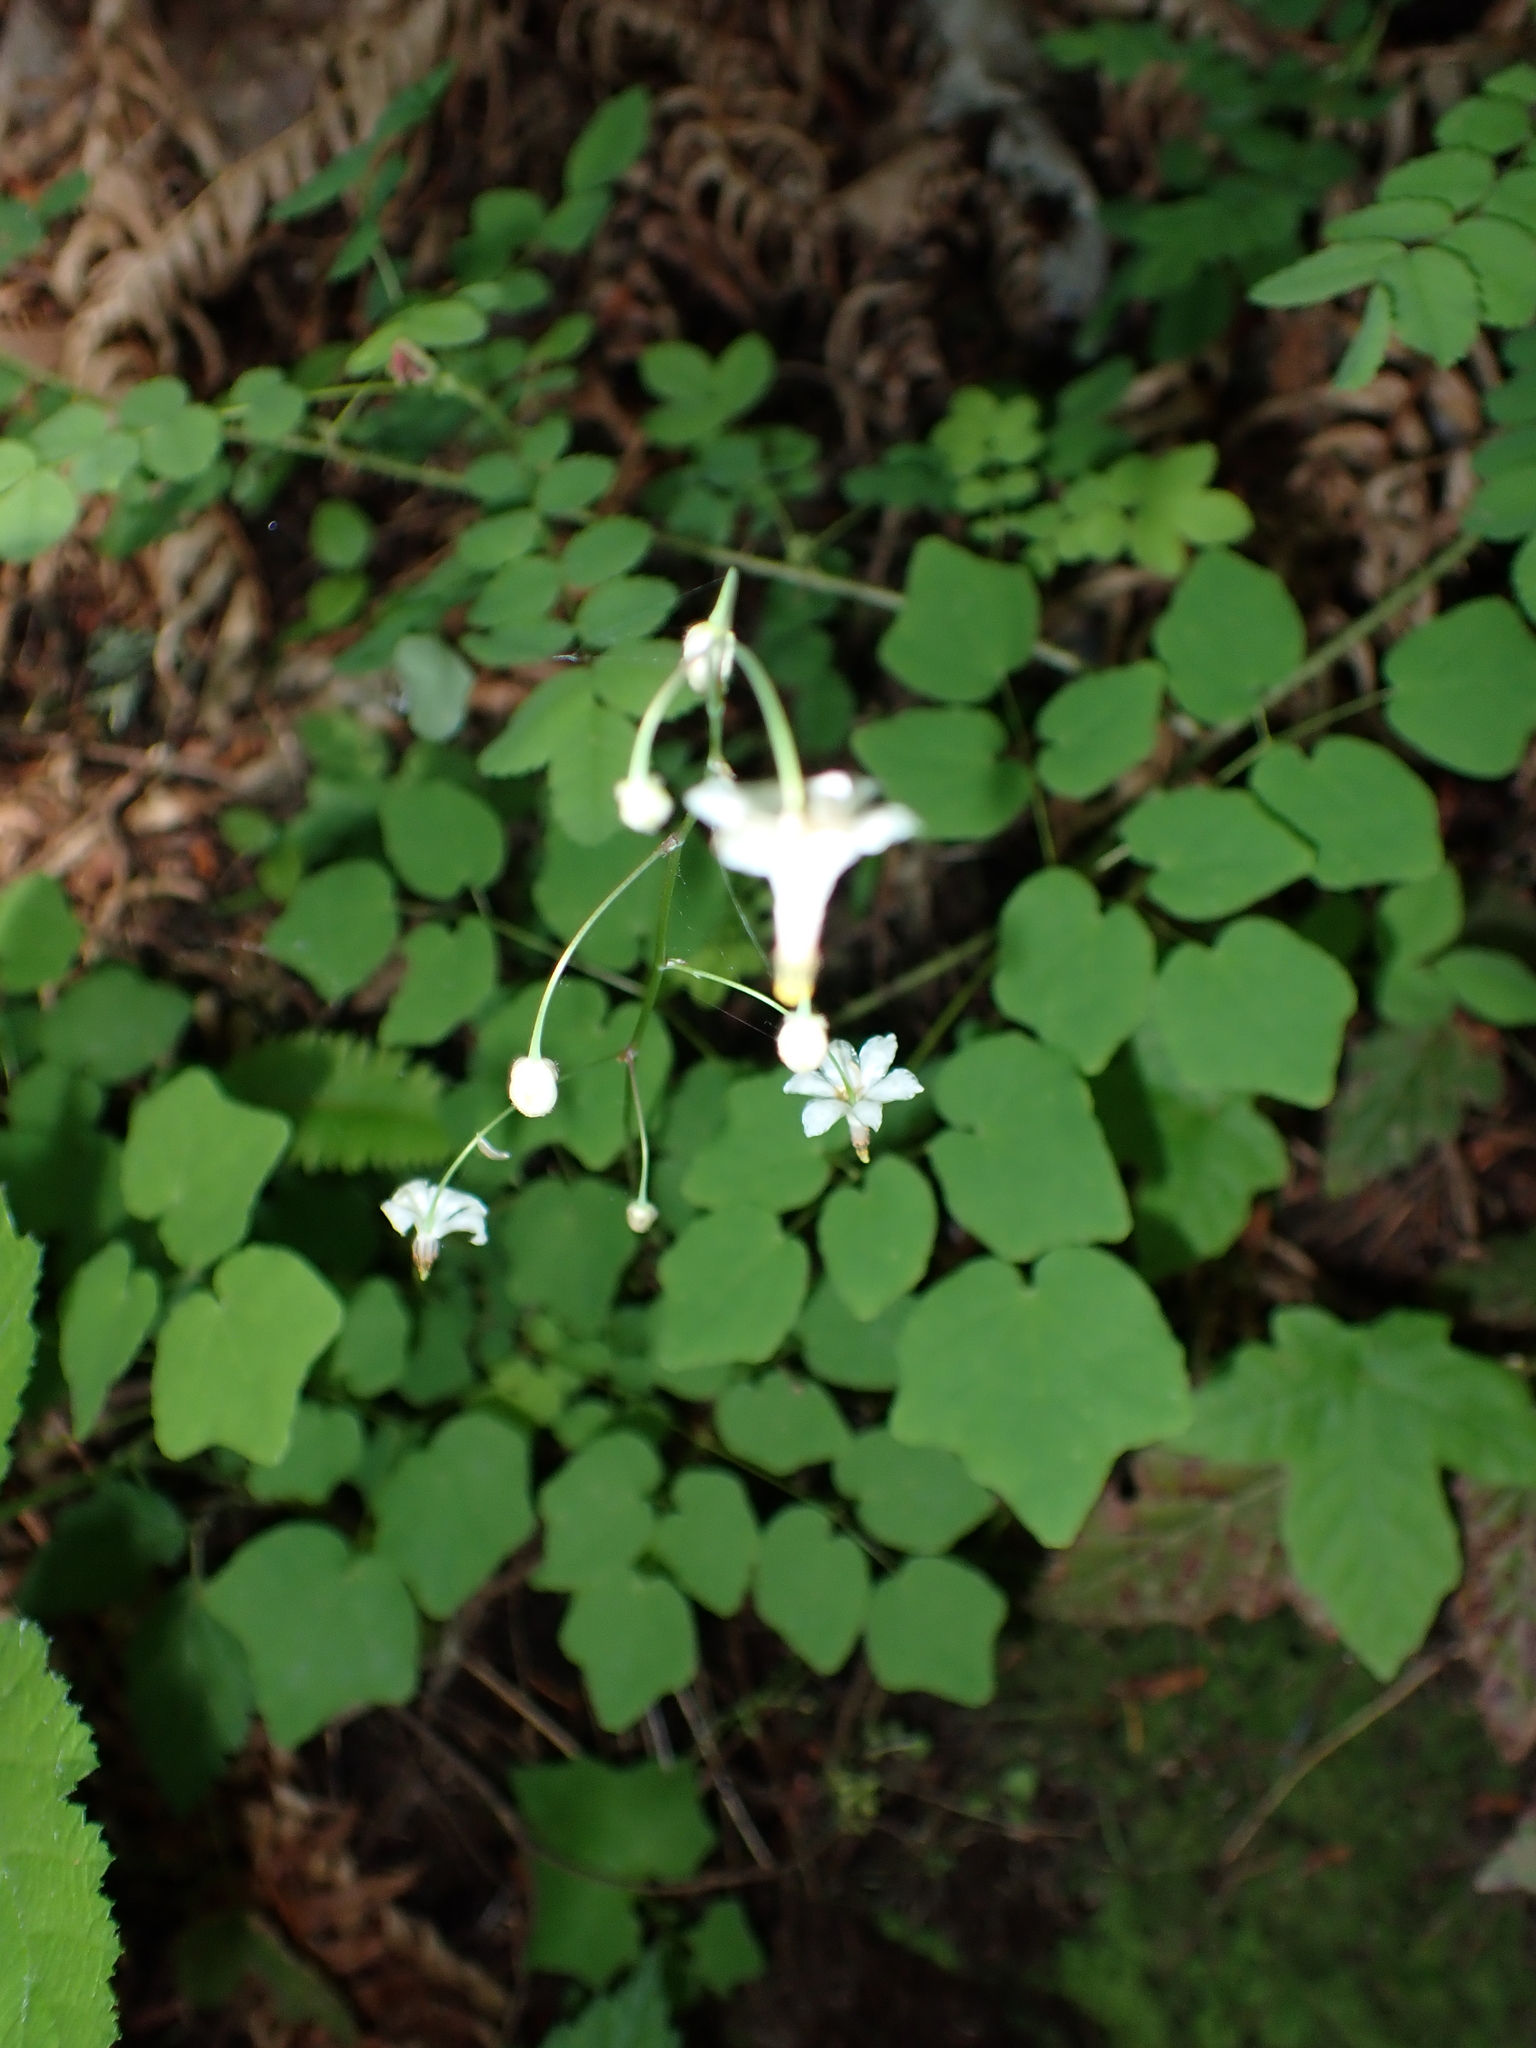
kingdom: Plantae
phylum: Tracheophyta
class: Magnoliopsida
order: Ranunculales
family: Berberidaceae
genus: Vancouveria
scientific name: Vancouveria hexandra
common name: Northern inside-out-flower
